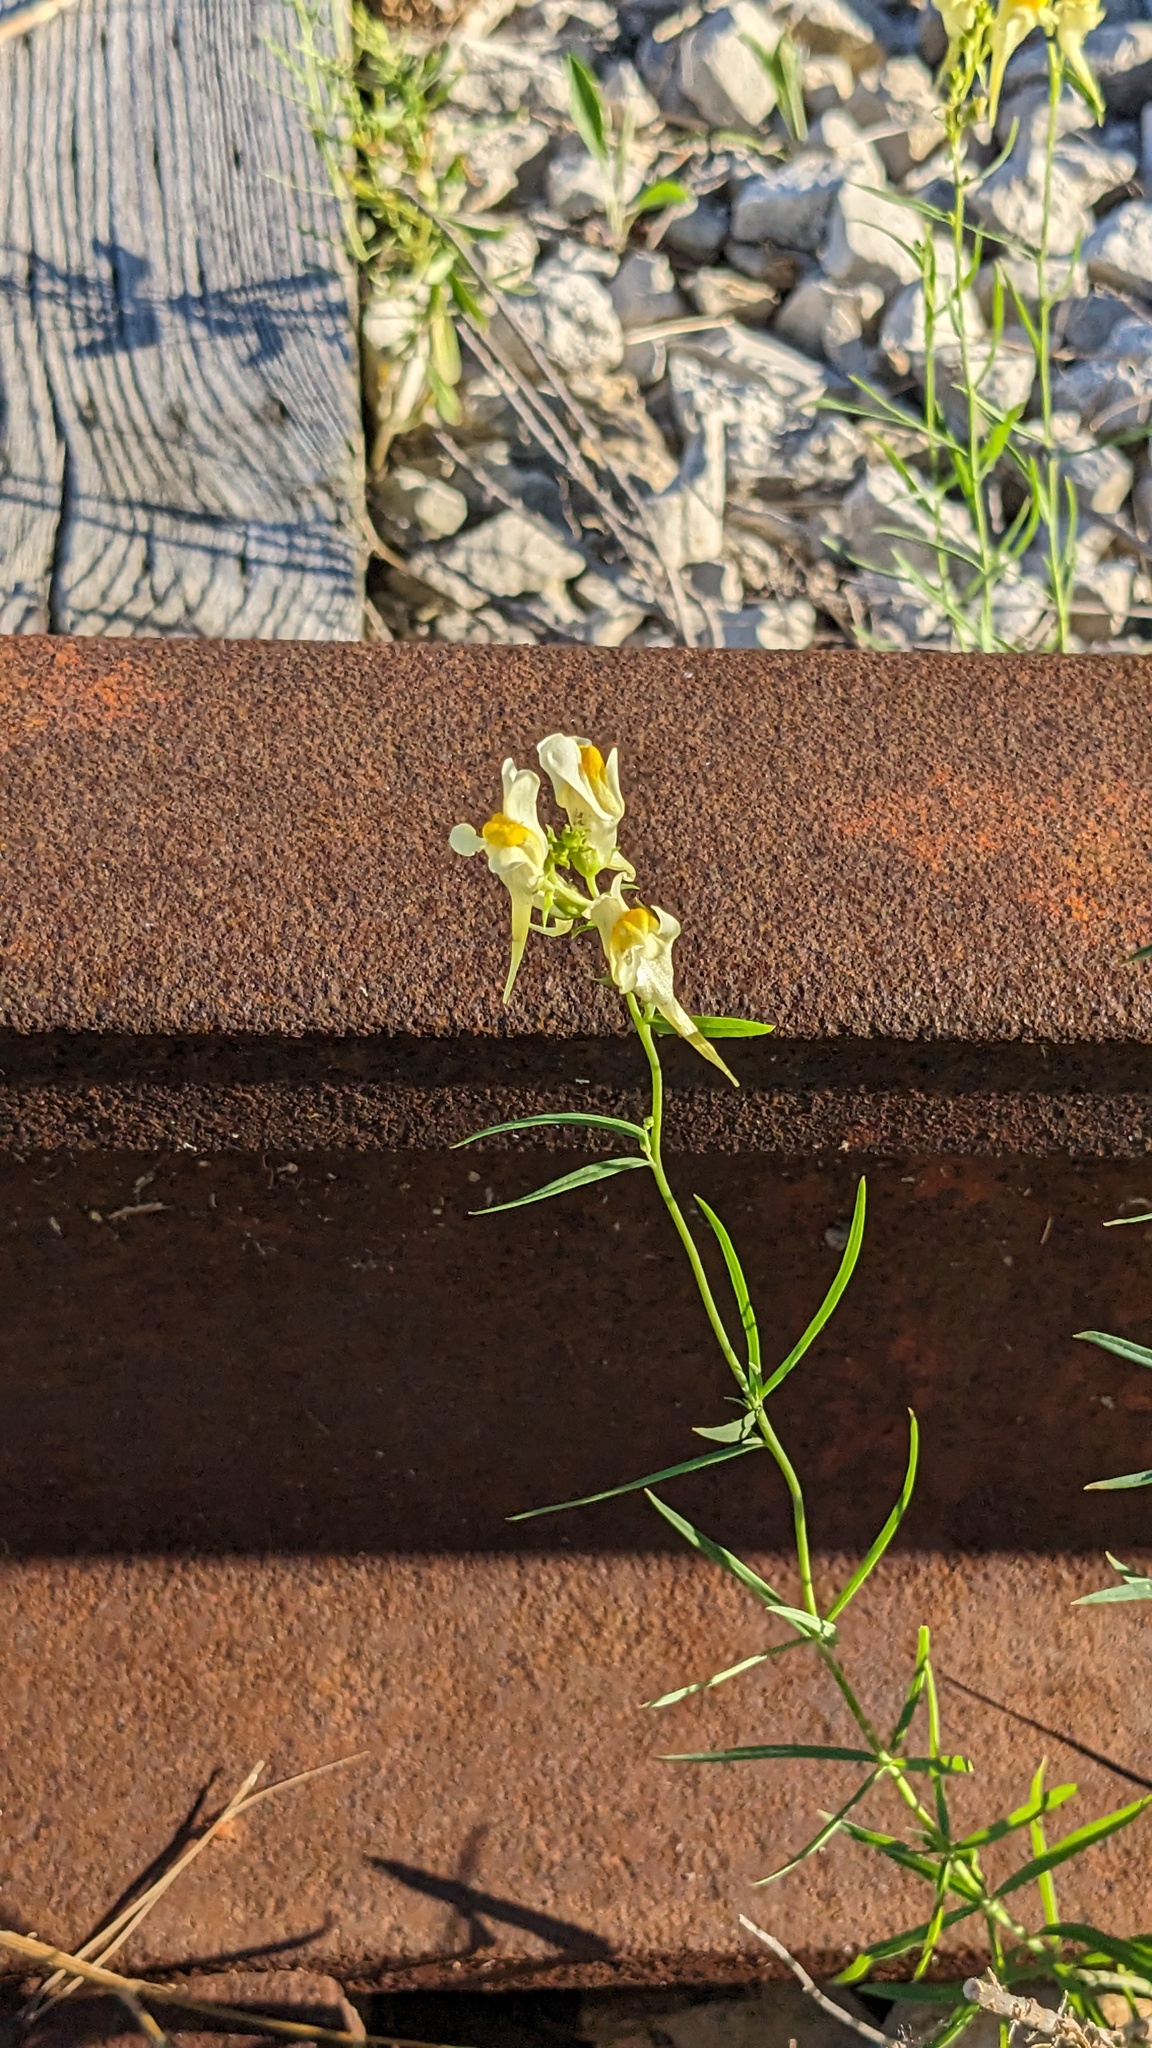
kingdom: Plantae
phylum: Tracheophyta
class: Magnoliopsida
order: Lamiales
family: Plantaginaceae
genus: Linaria
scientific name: Linaria vulgaris
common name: Butter and eggs
